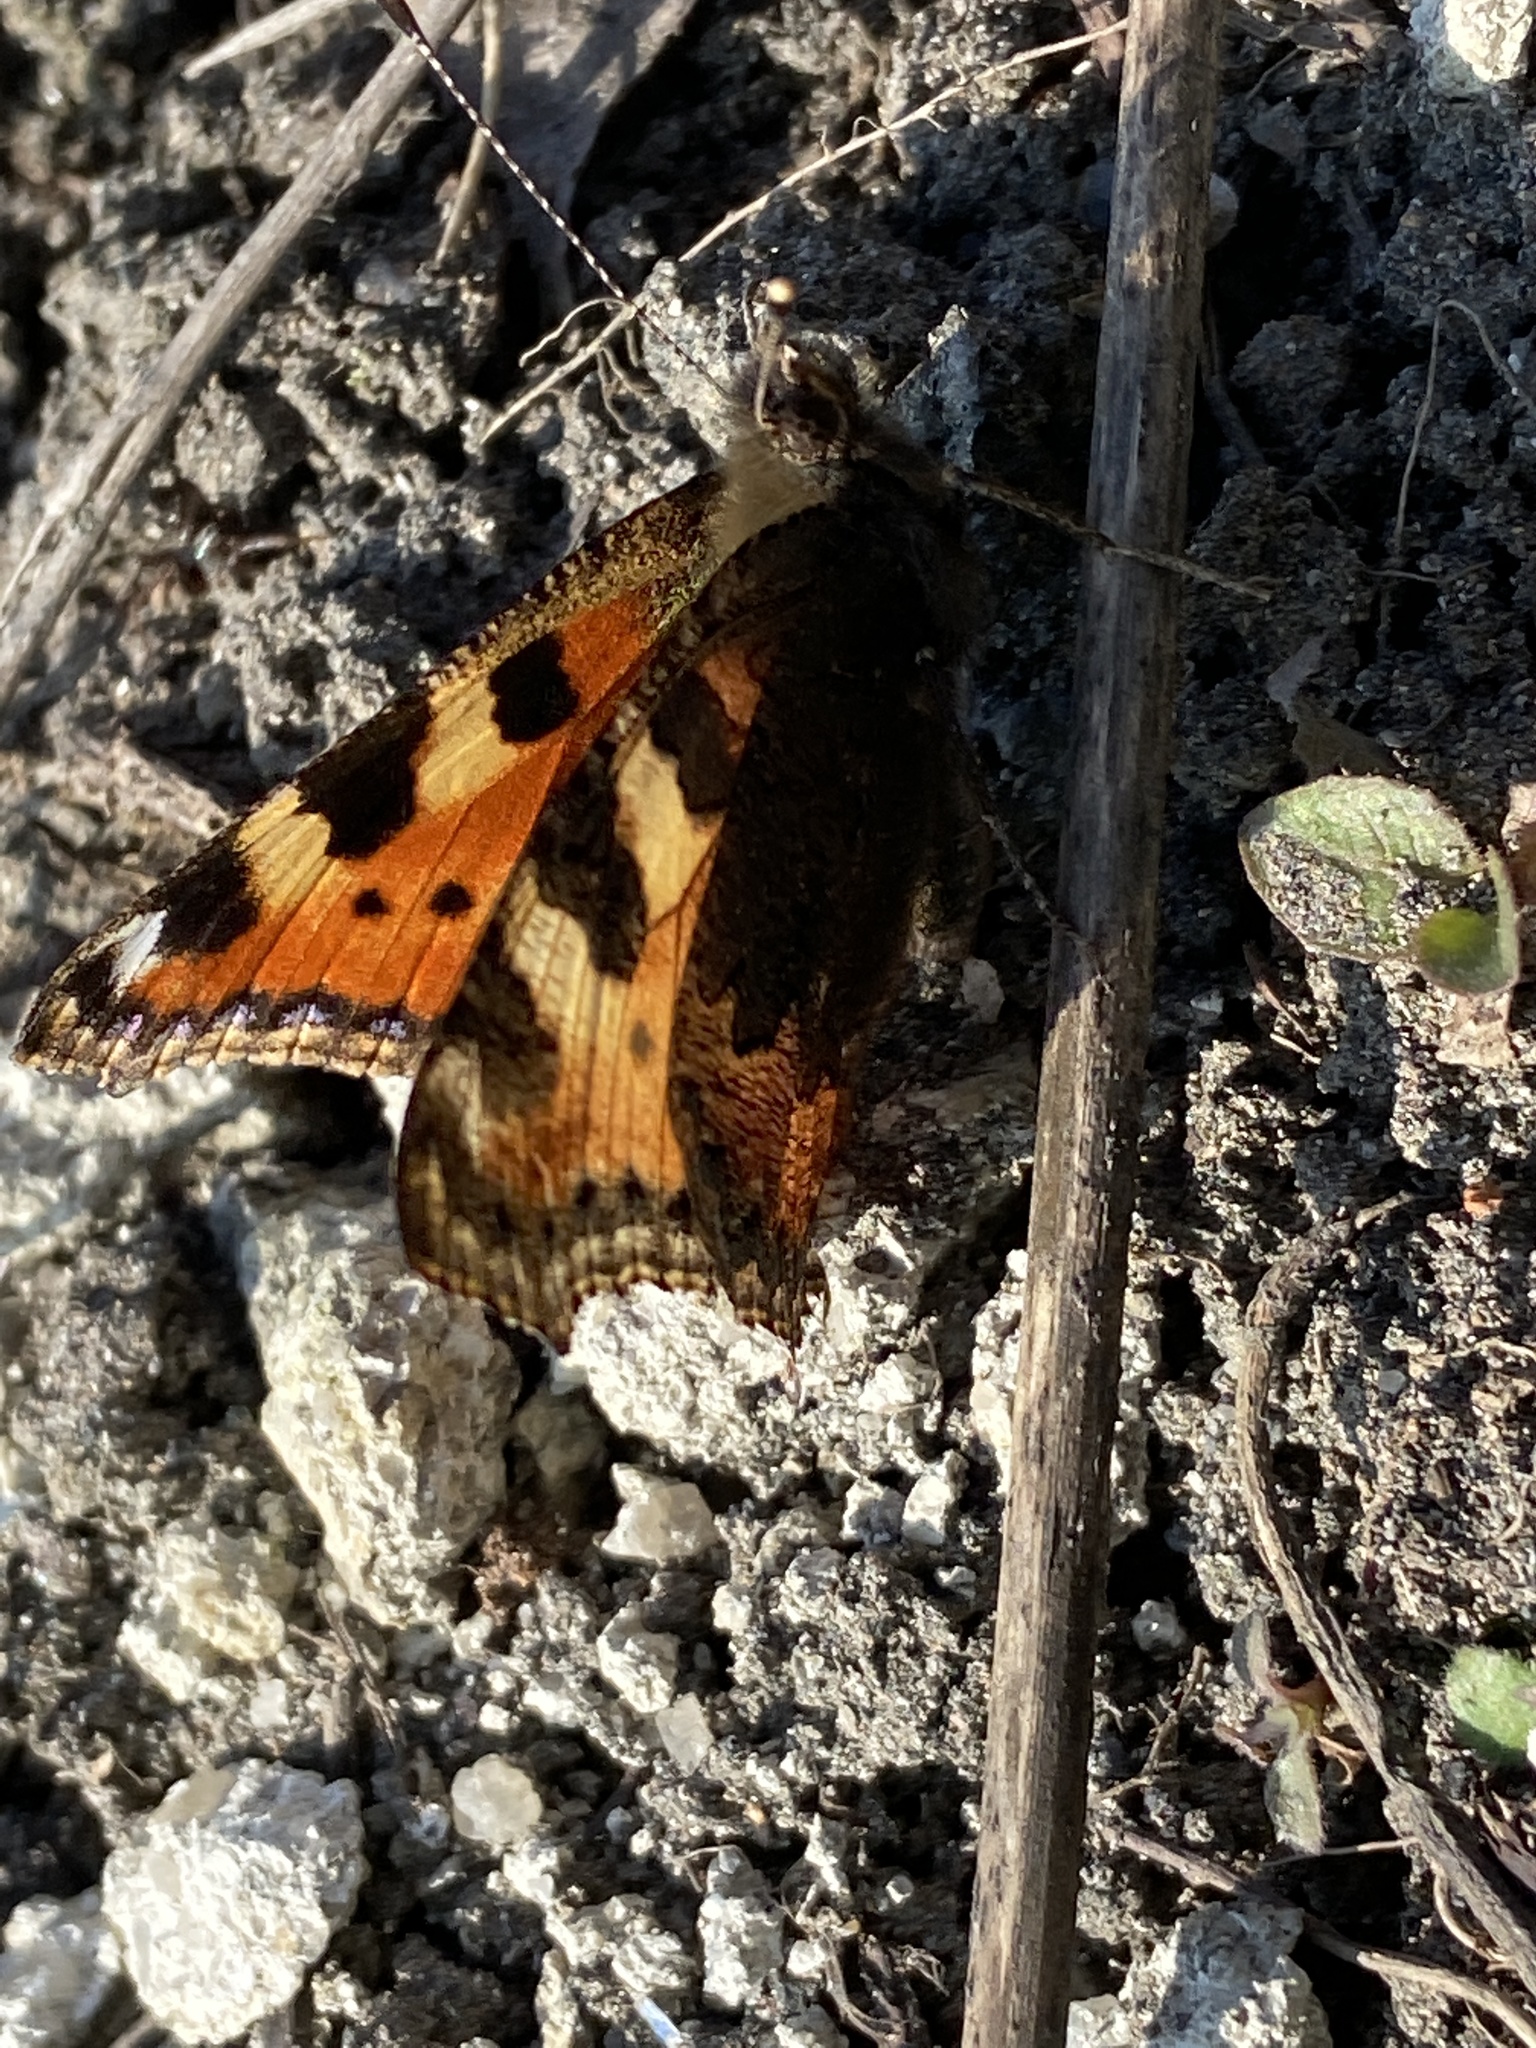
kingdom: Animalia
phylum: Arthropoda
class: Insecta
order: Lepidoptera
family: Nymphalidae
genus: Aglais
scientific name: Aglais urticae
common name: Small tortoiseshell
